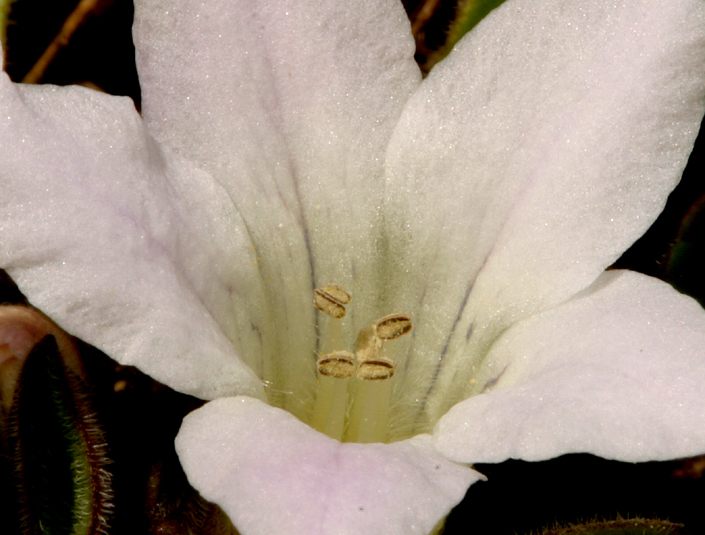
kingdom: Plantae
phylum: Tracheophyta
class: Magnoliopsida
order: Boraginales
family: Hydrophyllaceae
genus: Hesperochiron
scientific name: Hesperochiron californicus
